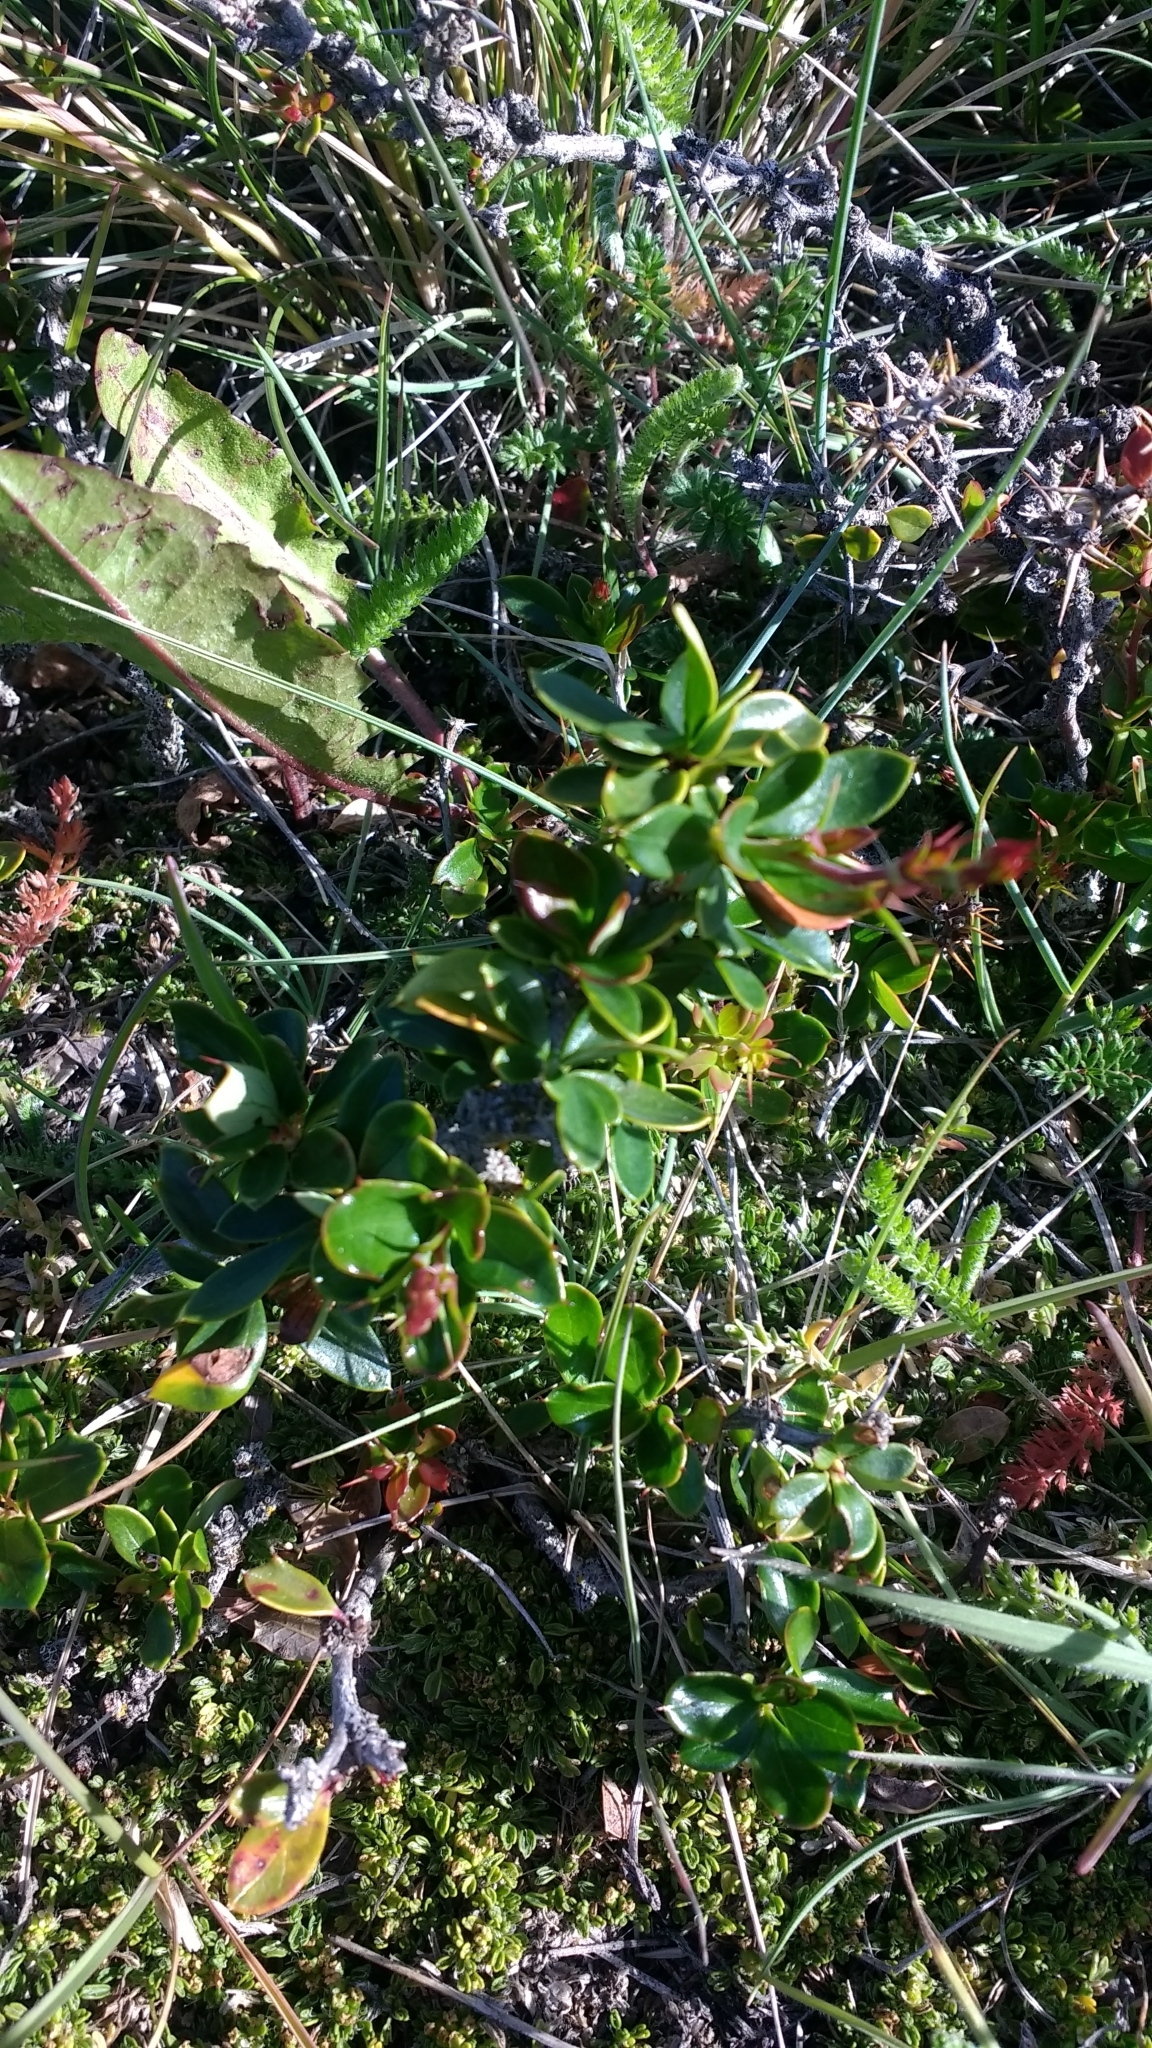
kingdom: Plantae
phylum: Tracheophyta
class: Magnoliopsida
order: Ranunculales
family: Berberidaceae
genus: Berberis
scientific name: Berberis microphylla
